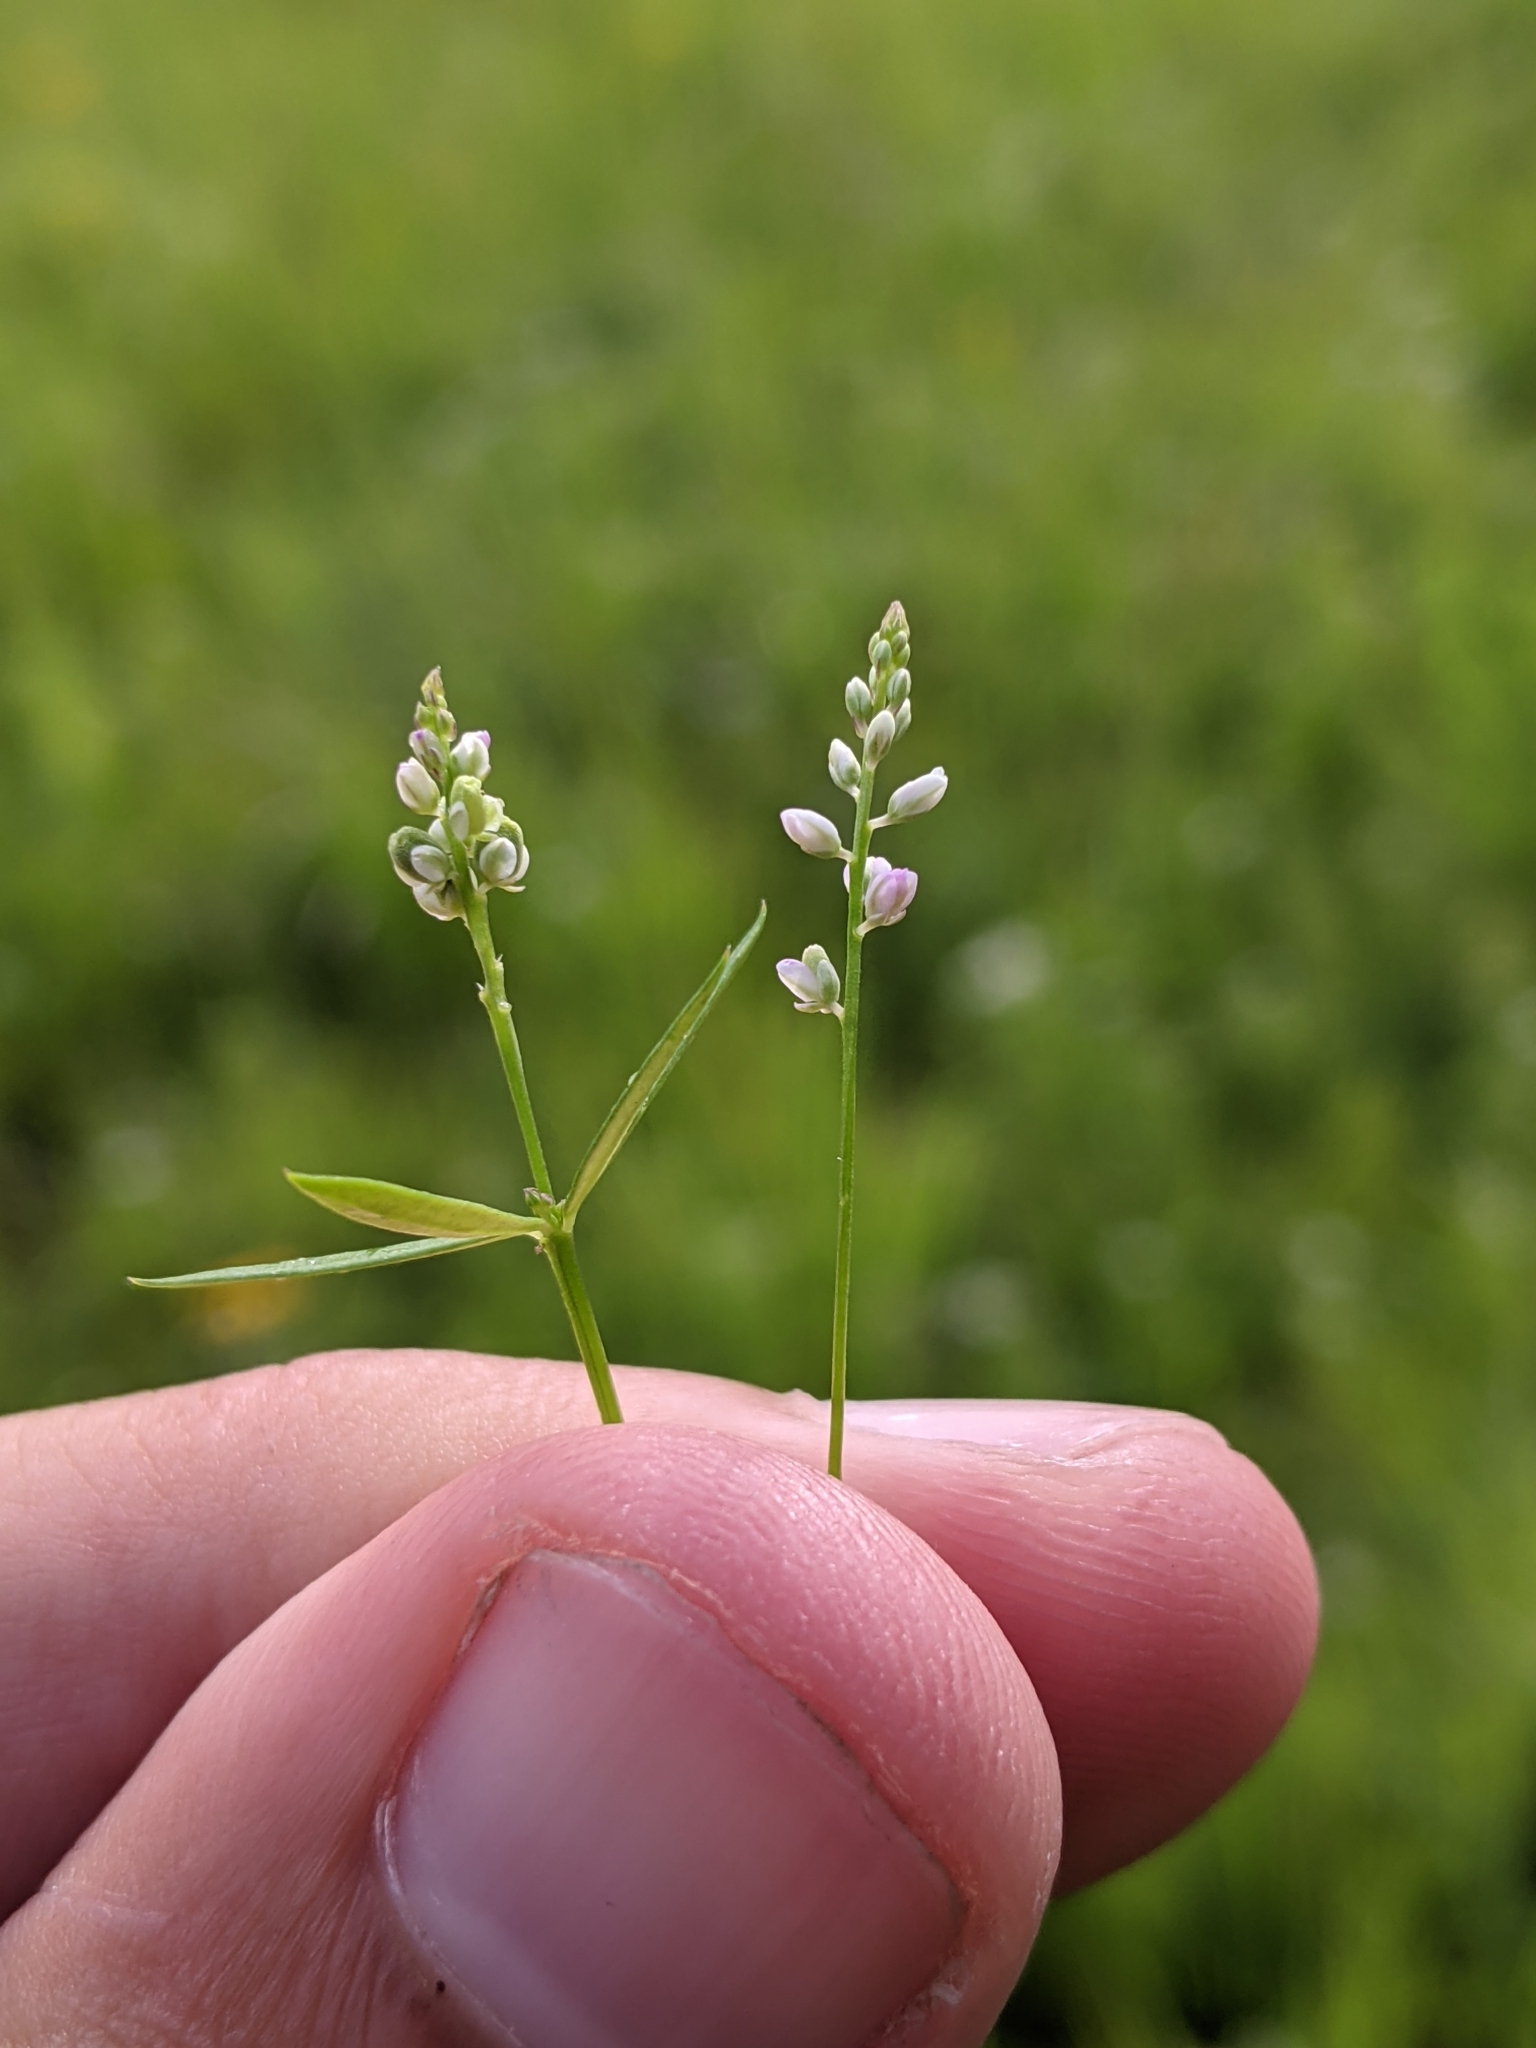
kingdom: Plantae
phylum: Tracheophyta
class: Magnoliopsida
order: Fabales
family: Polygalaceae
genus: Polygala
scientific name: Polygala ambigua
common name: Alternate milkwort
